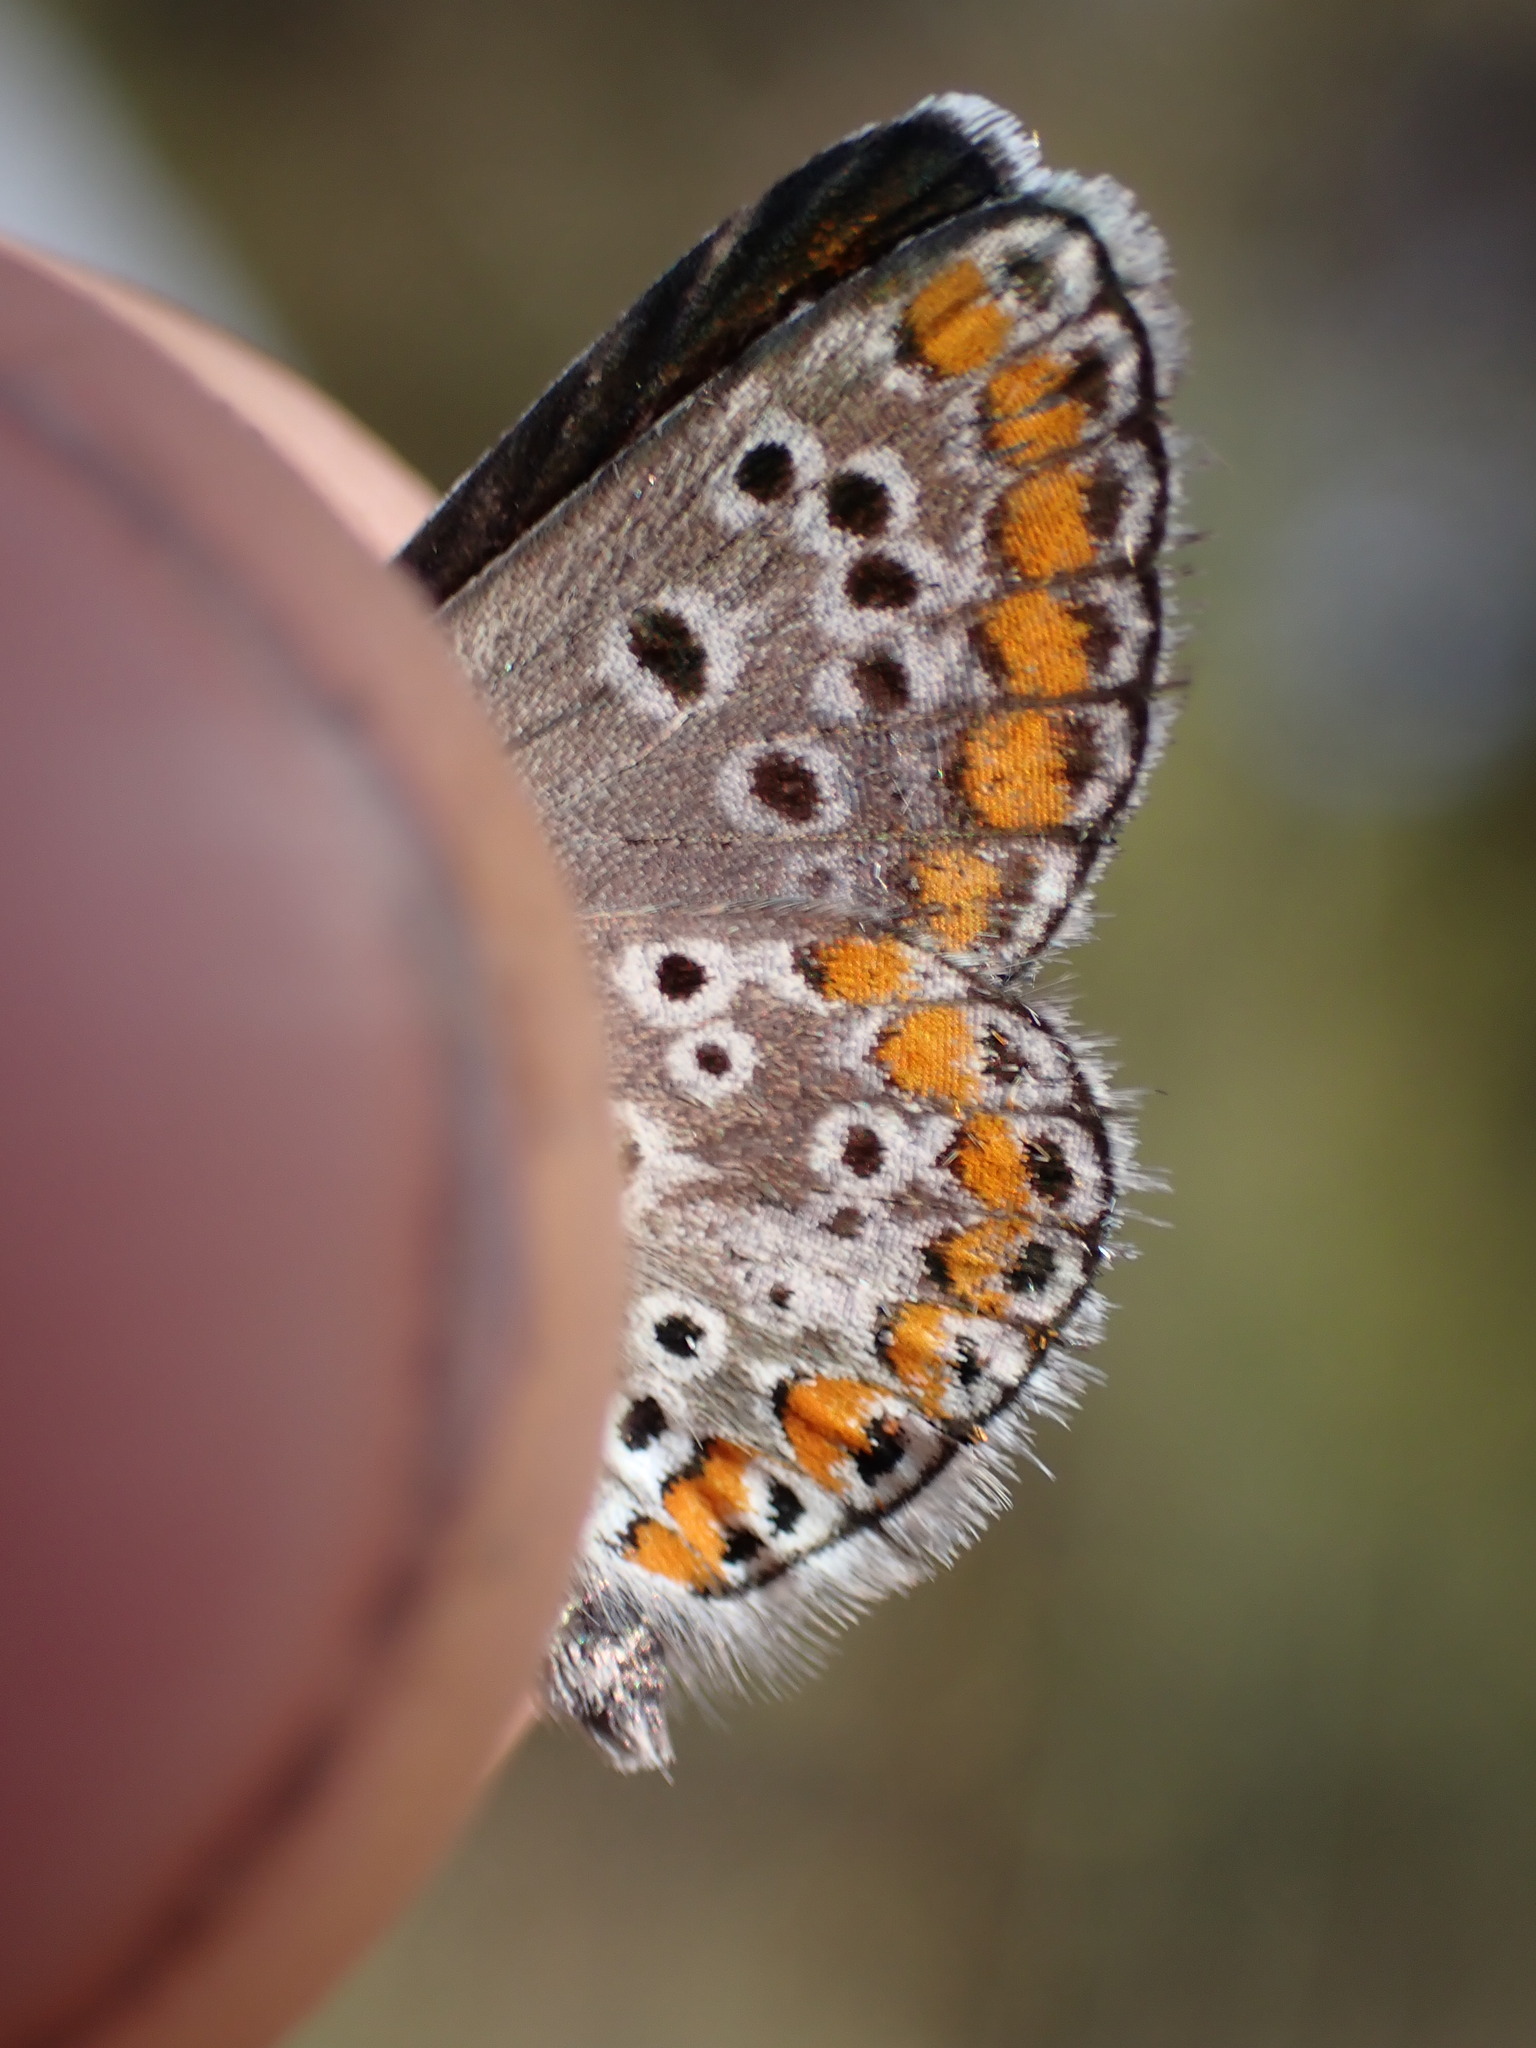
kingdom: Animalia
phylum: Arthropoda
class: Insecta
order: Lepidoptera
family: Lycaenidae
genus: Aricia
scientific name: Aricia agestis
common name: Brown argus
